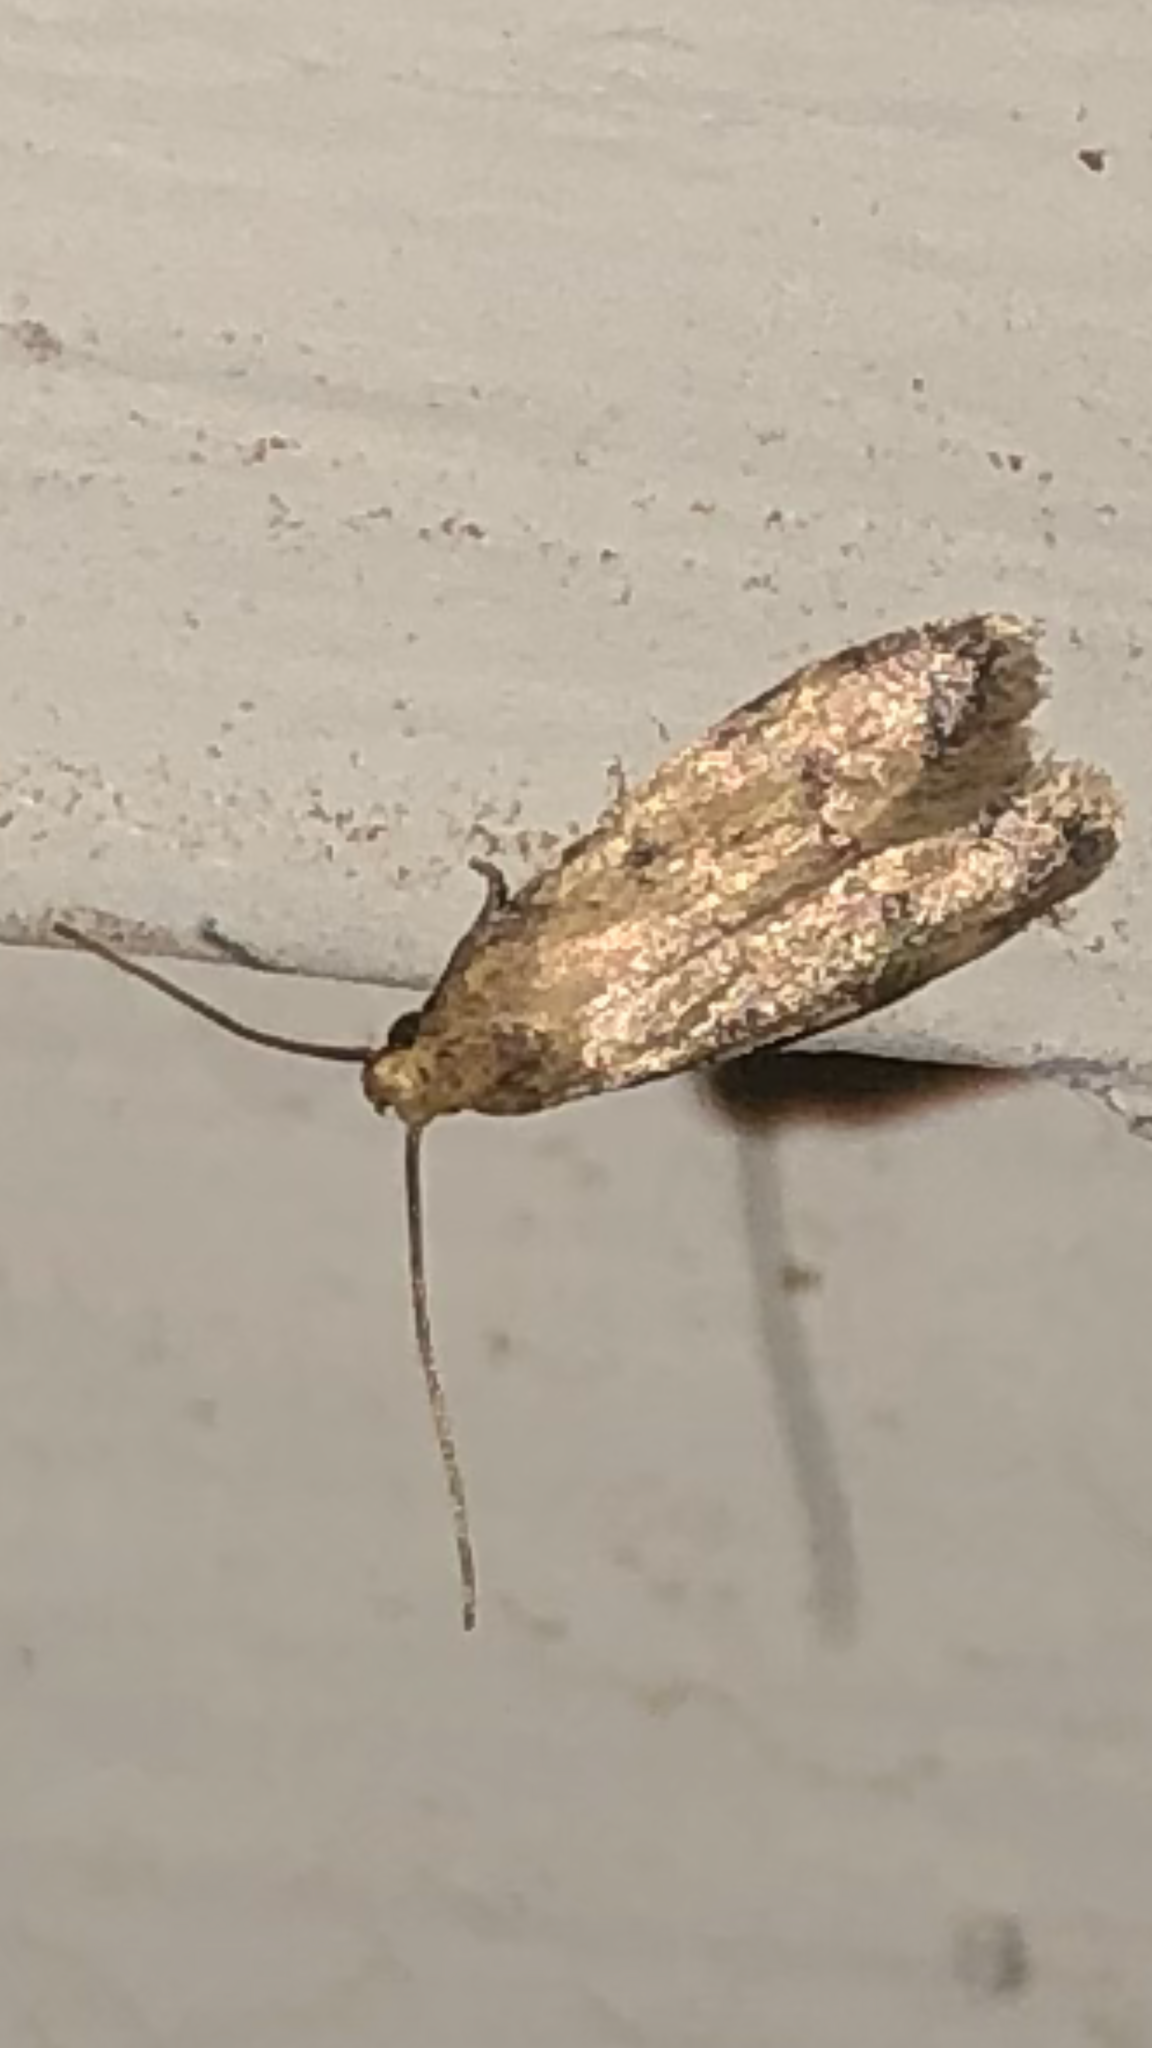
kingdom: Animalia
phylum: Arthropoda
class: Insecta
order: Lepidoptera
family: Autostichidae
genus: Gerdana
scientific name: Gerdana caritella
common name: Gerdana moth
